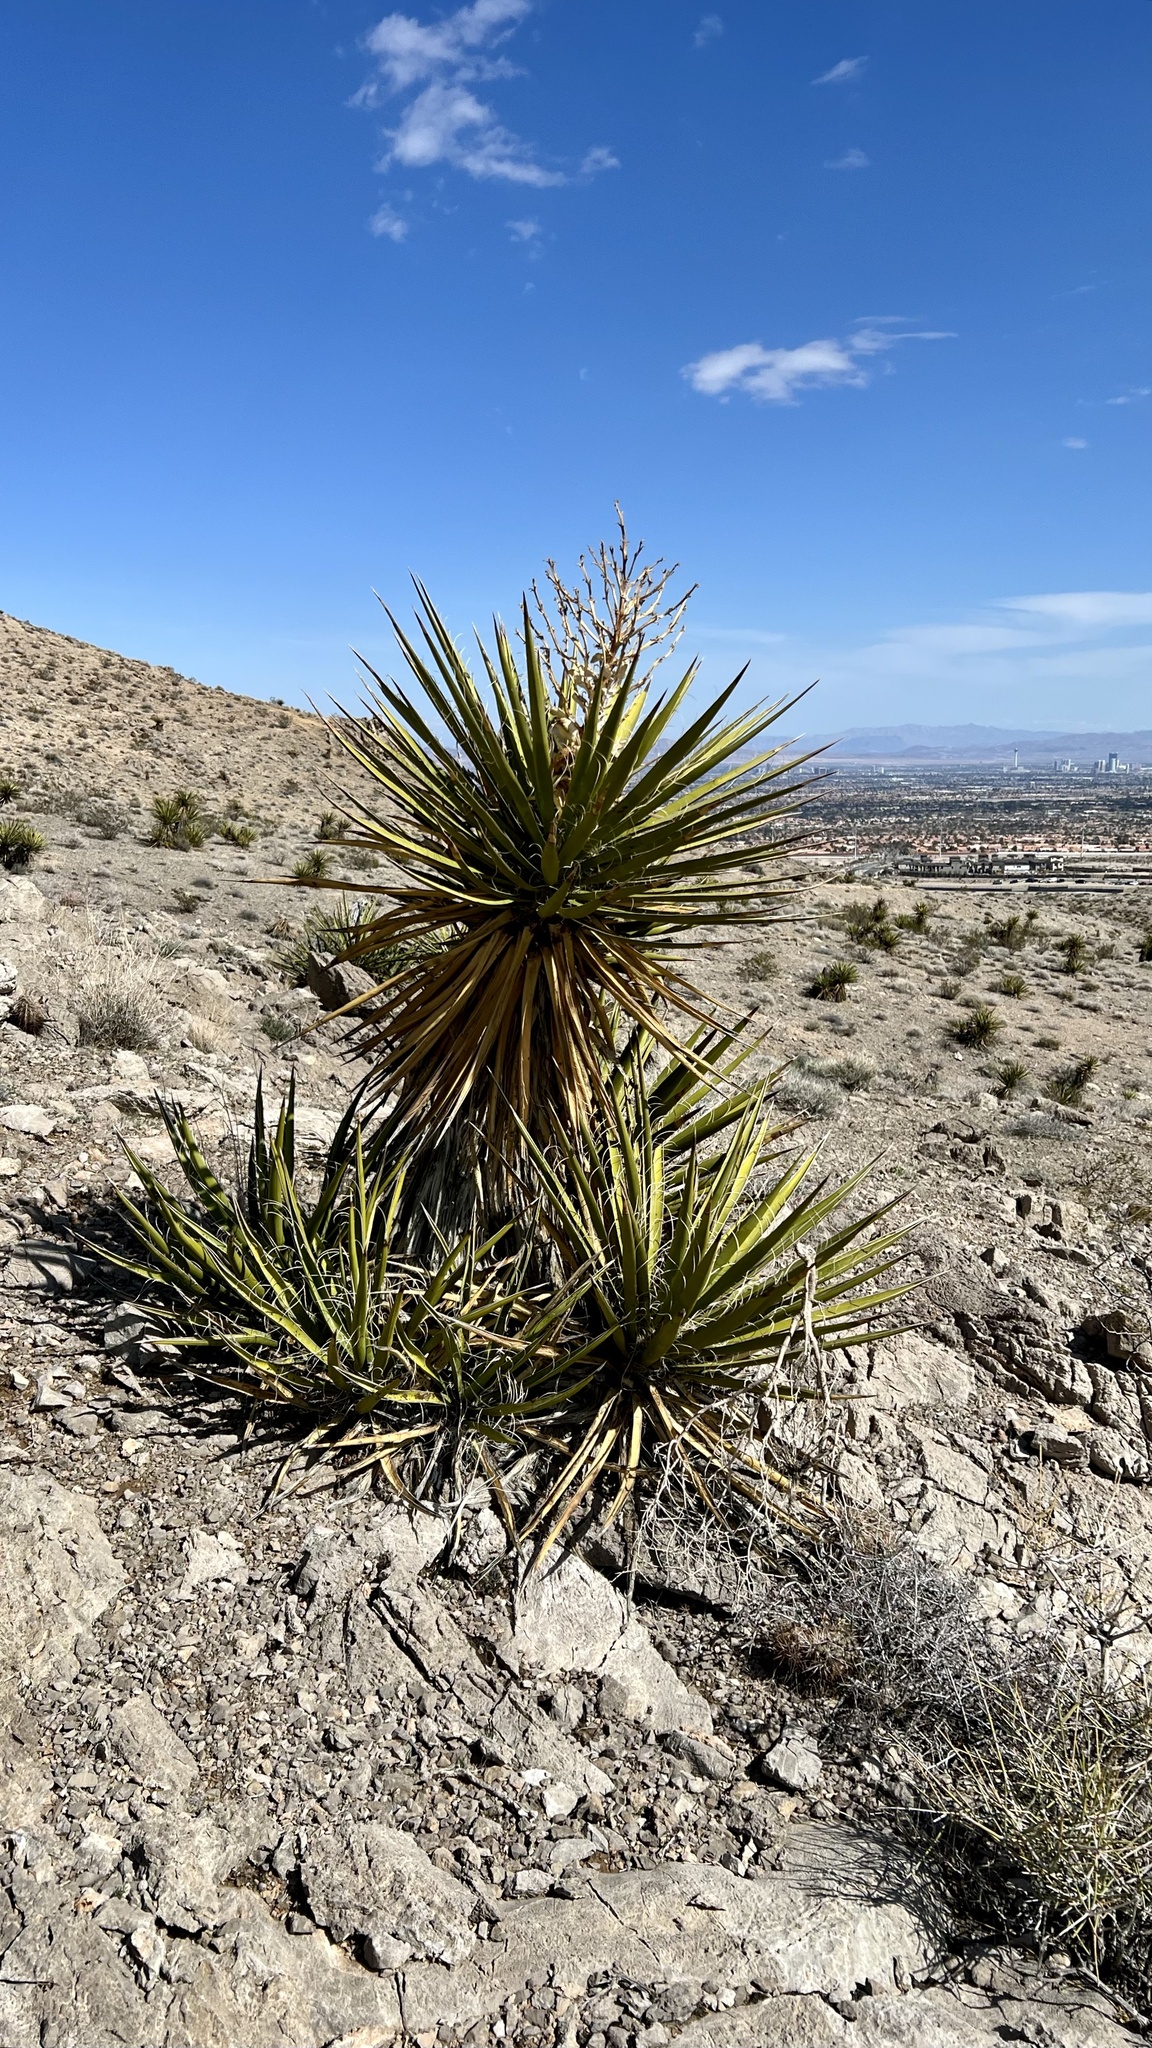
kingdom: Plantae
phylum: Tracheophyta
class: Liliopsida
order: Asparagales
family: Asparagaceae
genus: Yucca
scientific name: Yucca schidigera
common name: Mojave yucca
